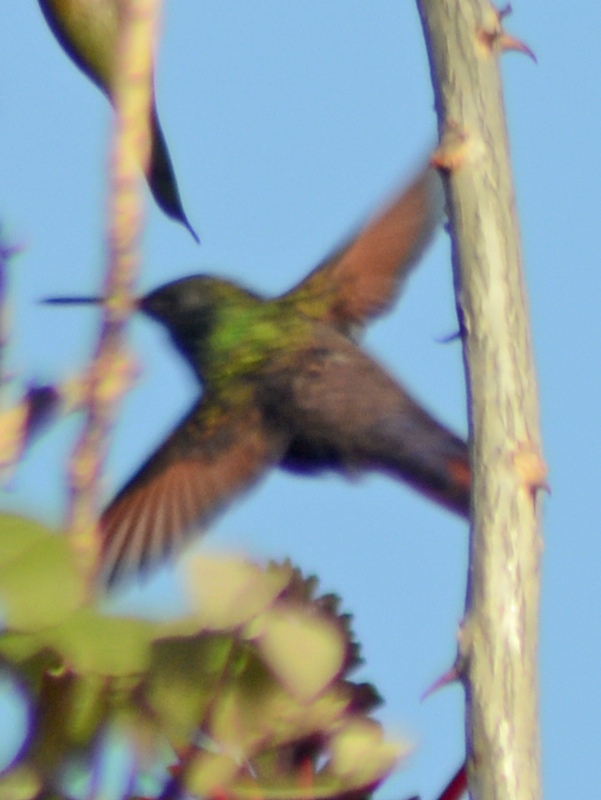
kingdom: Animalia
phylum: Chordata
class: Aves
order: Apodiformes
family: Trochilidae
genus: Saucerottia
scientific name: Saucerottia beryllina
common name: Berylline hummingbird
